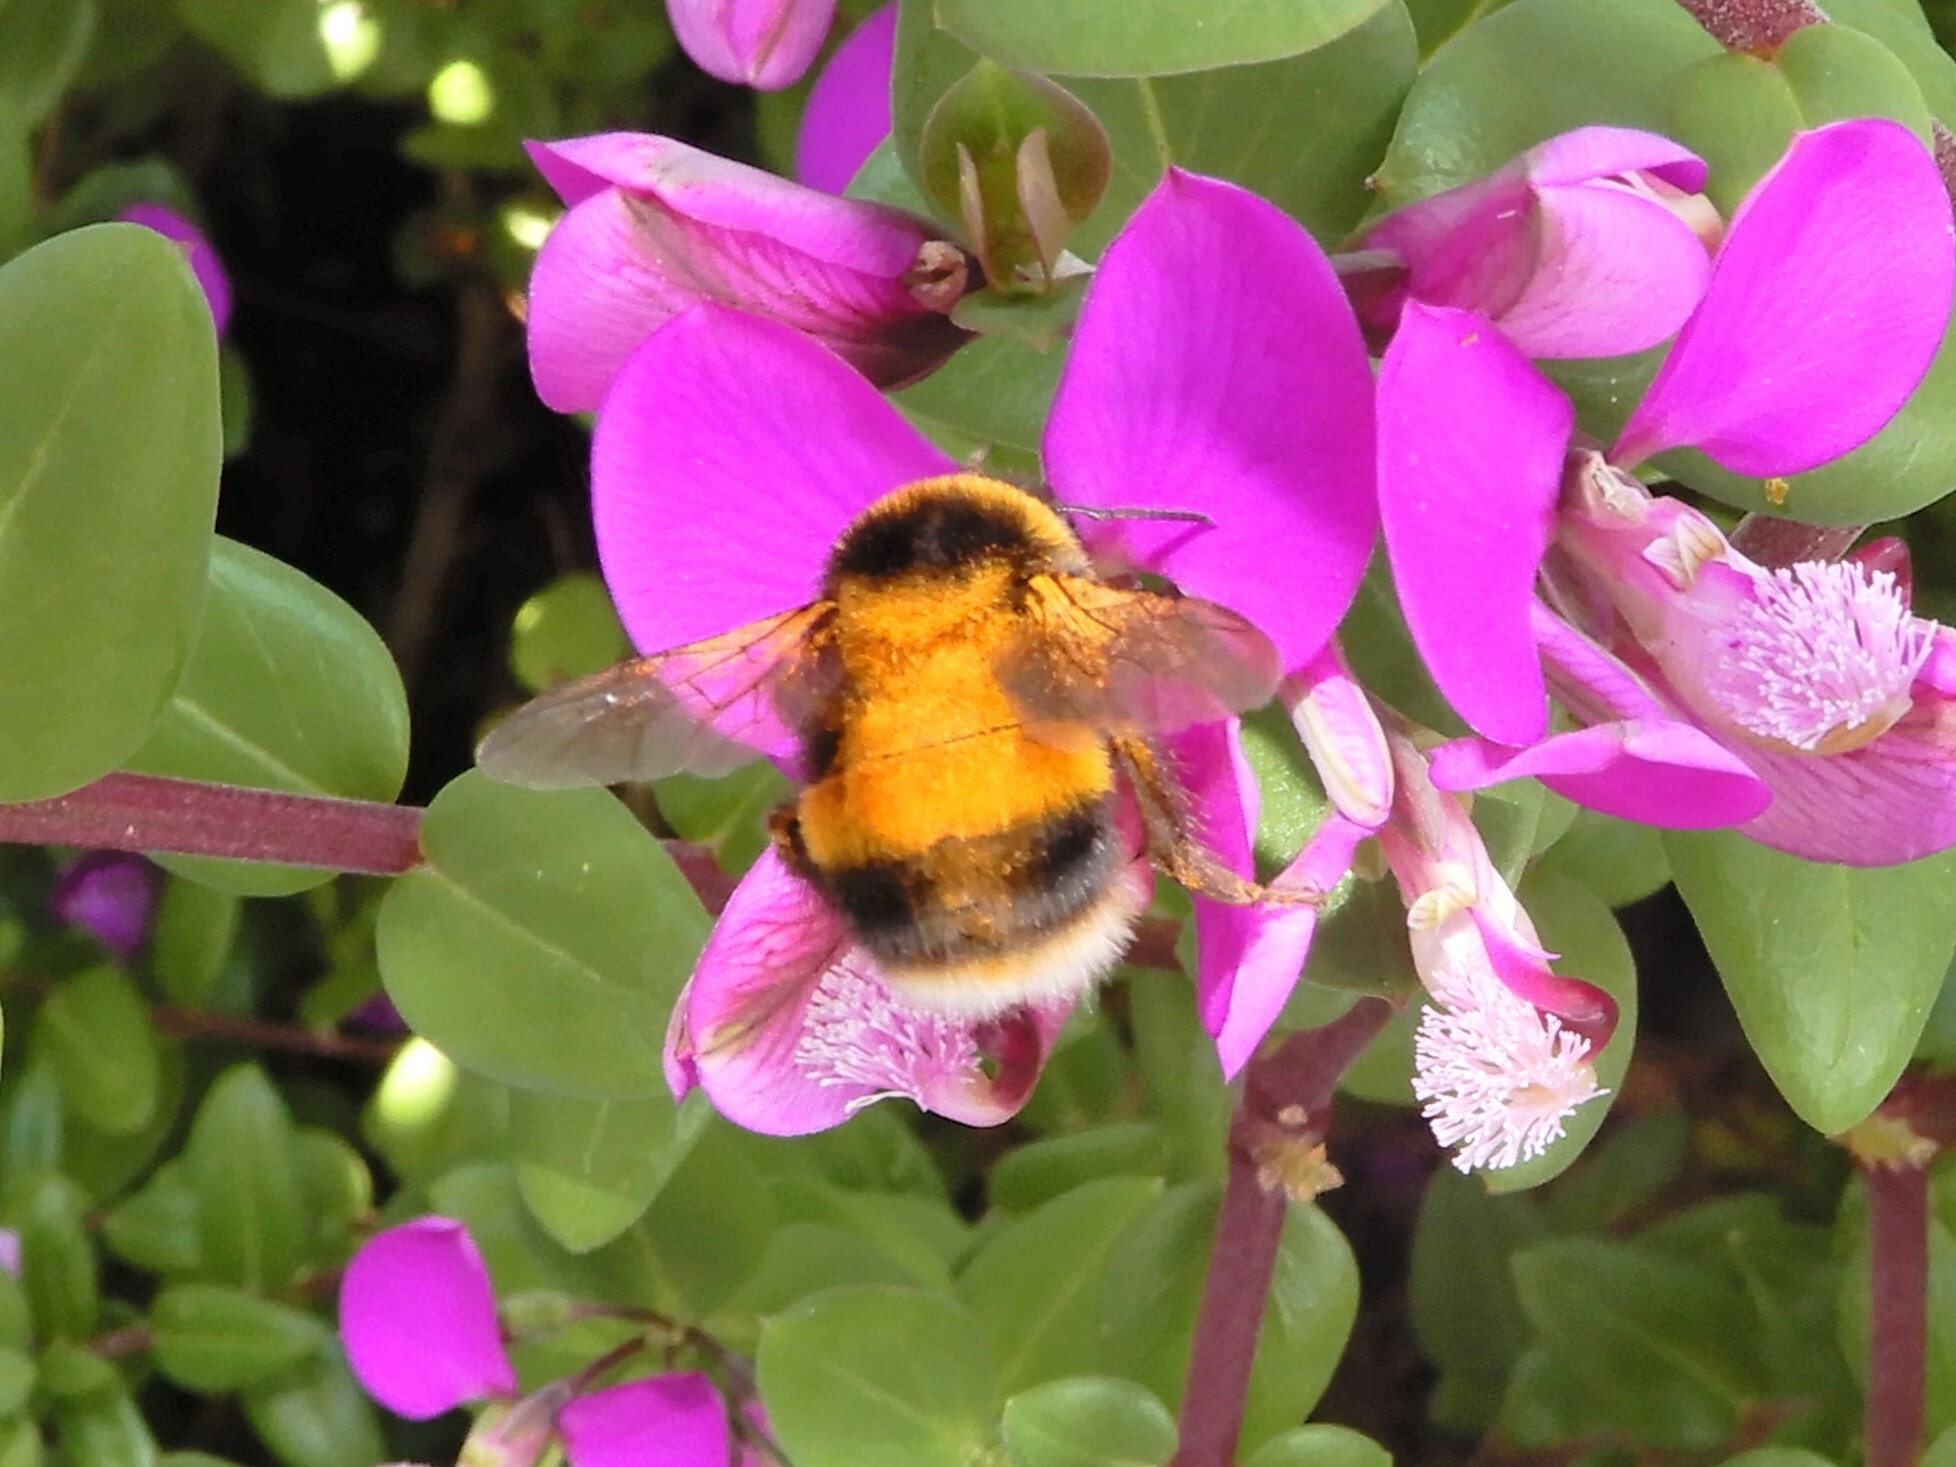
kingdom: Animalia
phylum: Arthropoda
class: Insecta
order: Hymenoptera
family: Apidae
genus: Bombus
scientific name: Bombus terrestris
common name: Buff-tailed bumblebee
